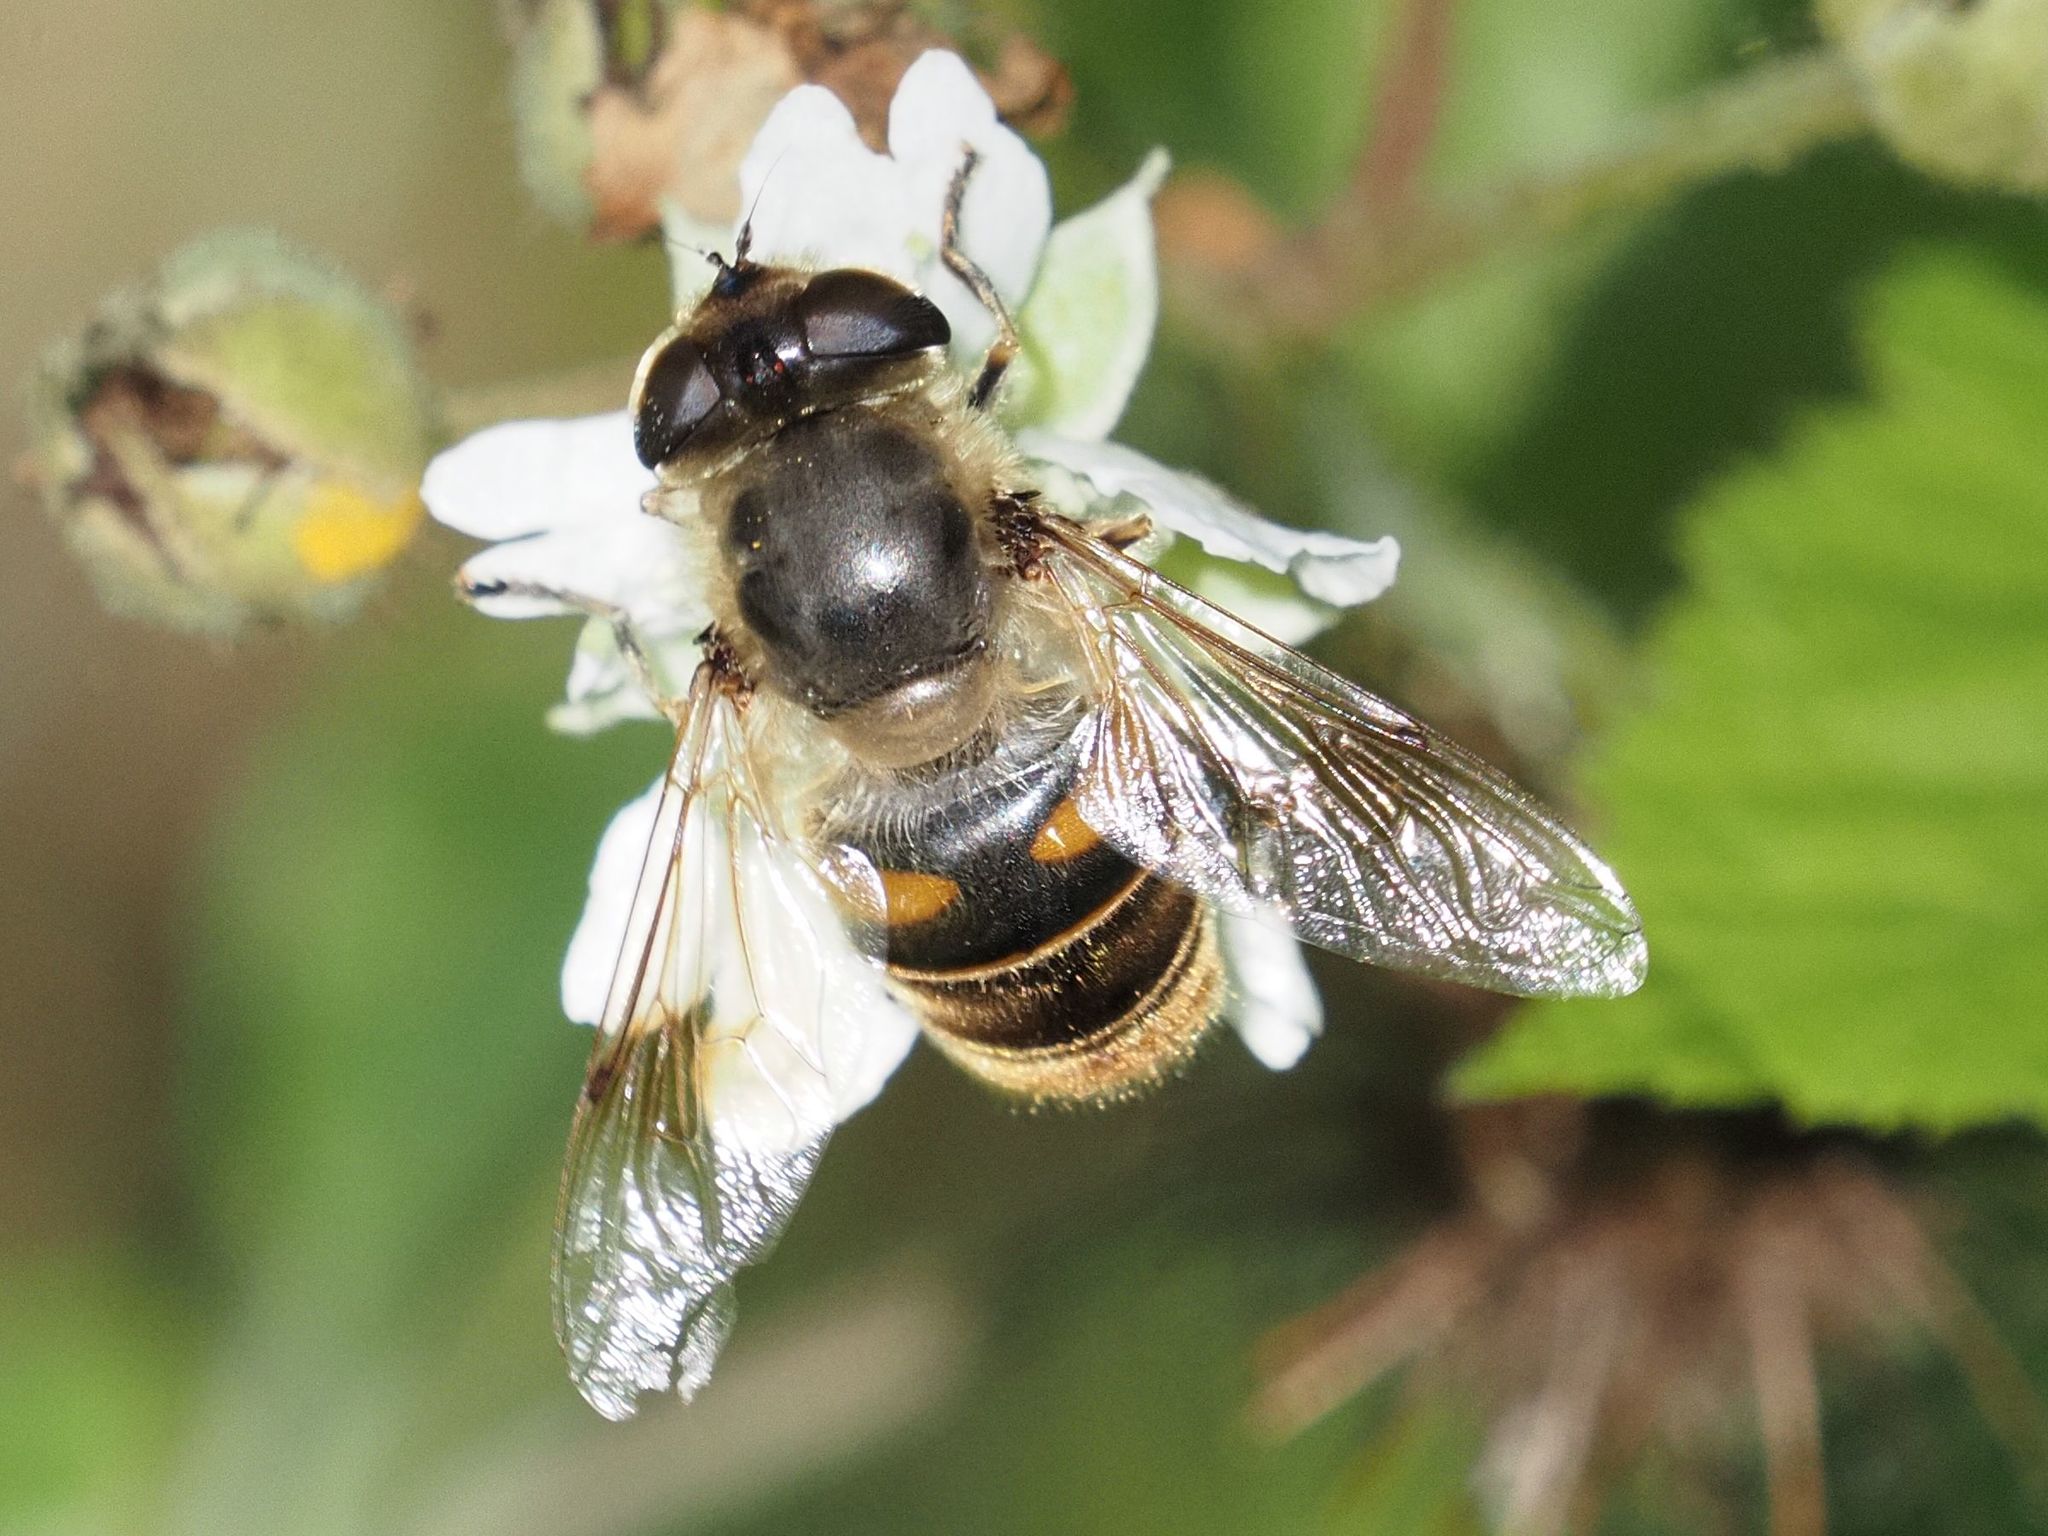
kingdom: Animalia
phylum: Arthropoda
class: Insecta
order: Diptera
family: Syrphidae
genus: Eristalis
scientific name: Eristalis tenax
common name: Drone fly
